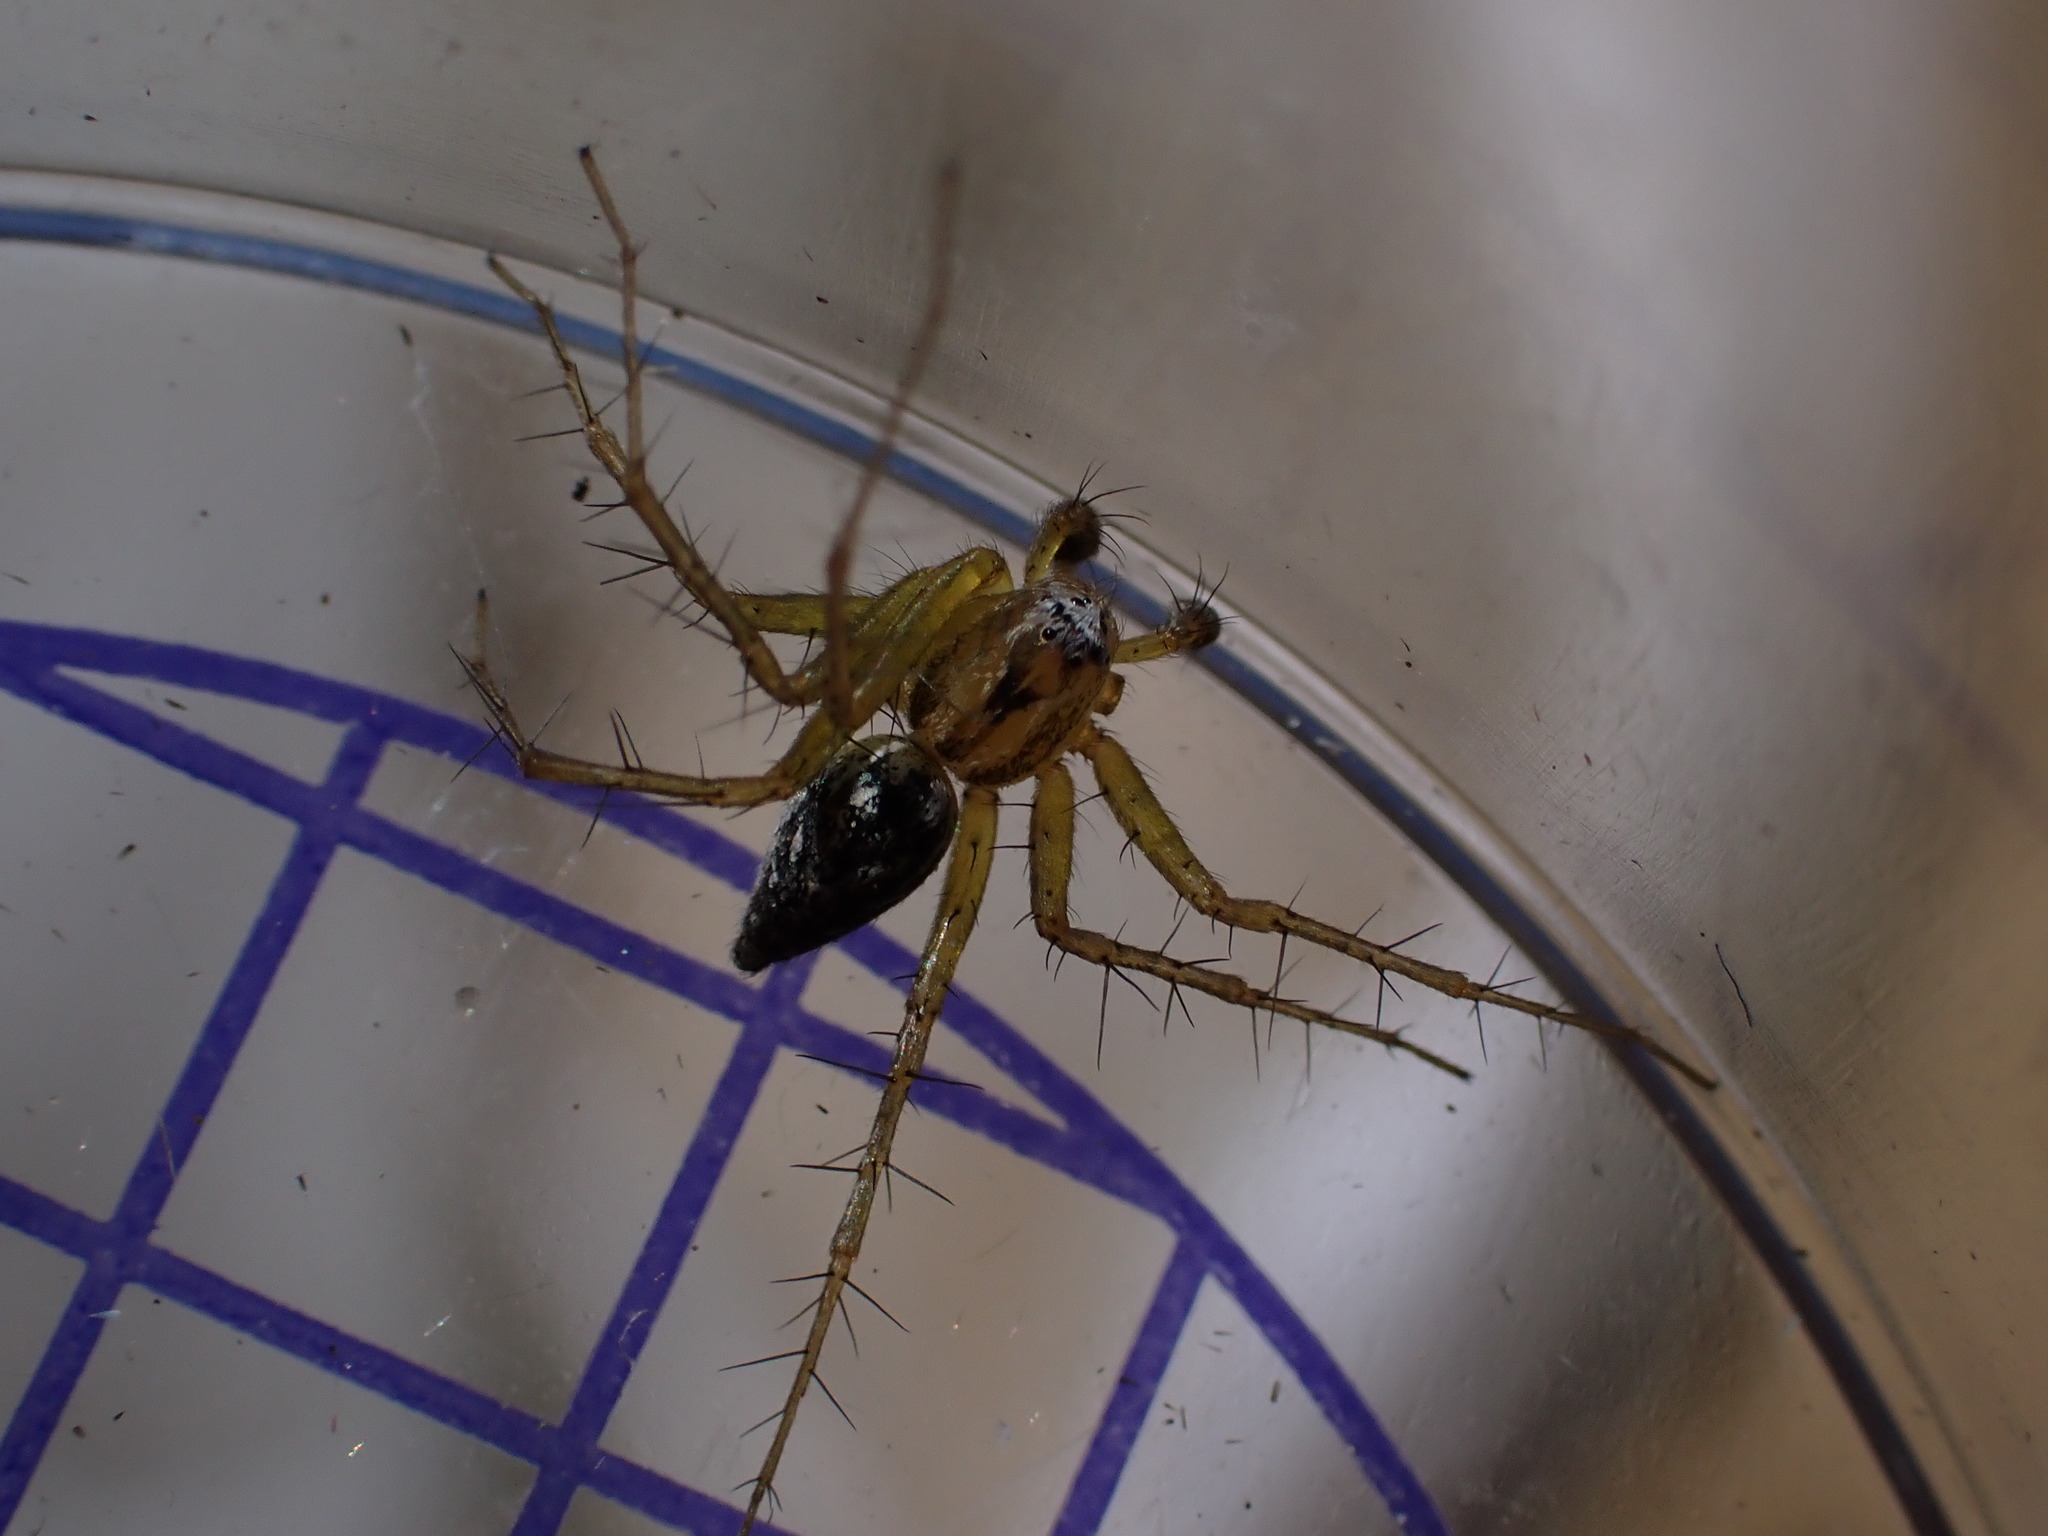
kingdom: Animalia
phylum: Arthropoda
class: Arachnida
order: Araneae
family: Oxyopidae
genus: Oxyopes
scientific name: Oxyopes lineatus
